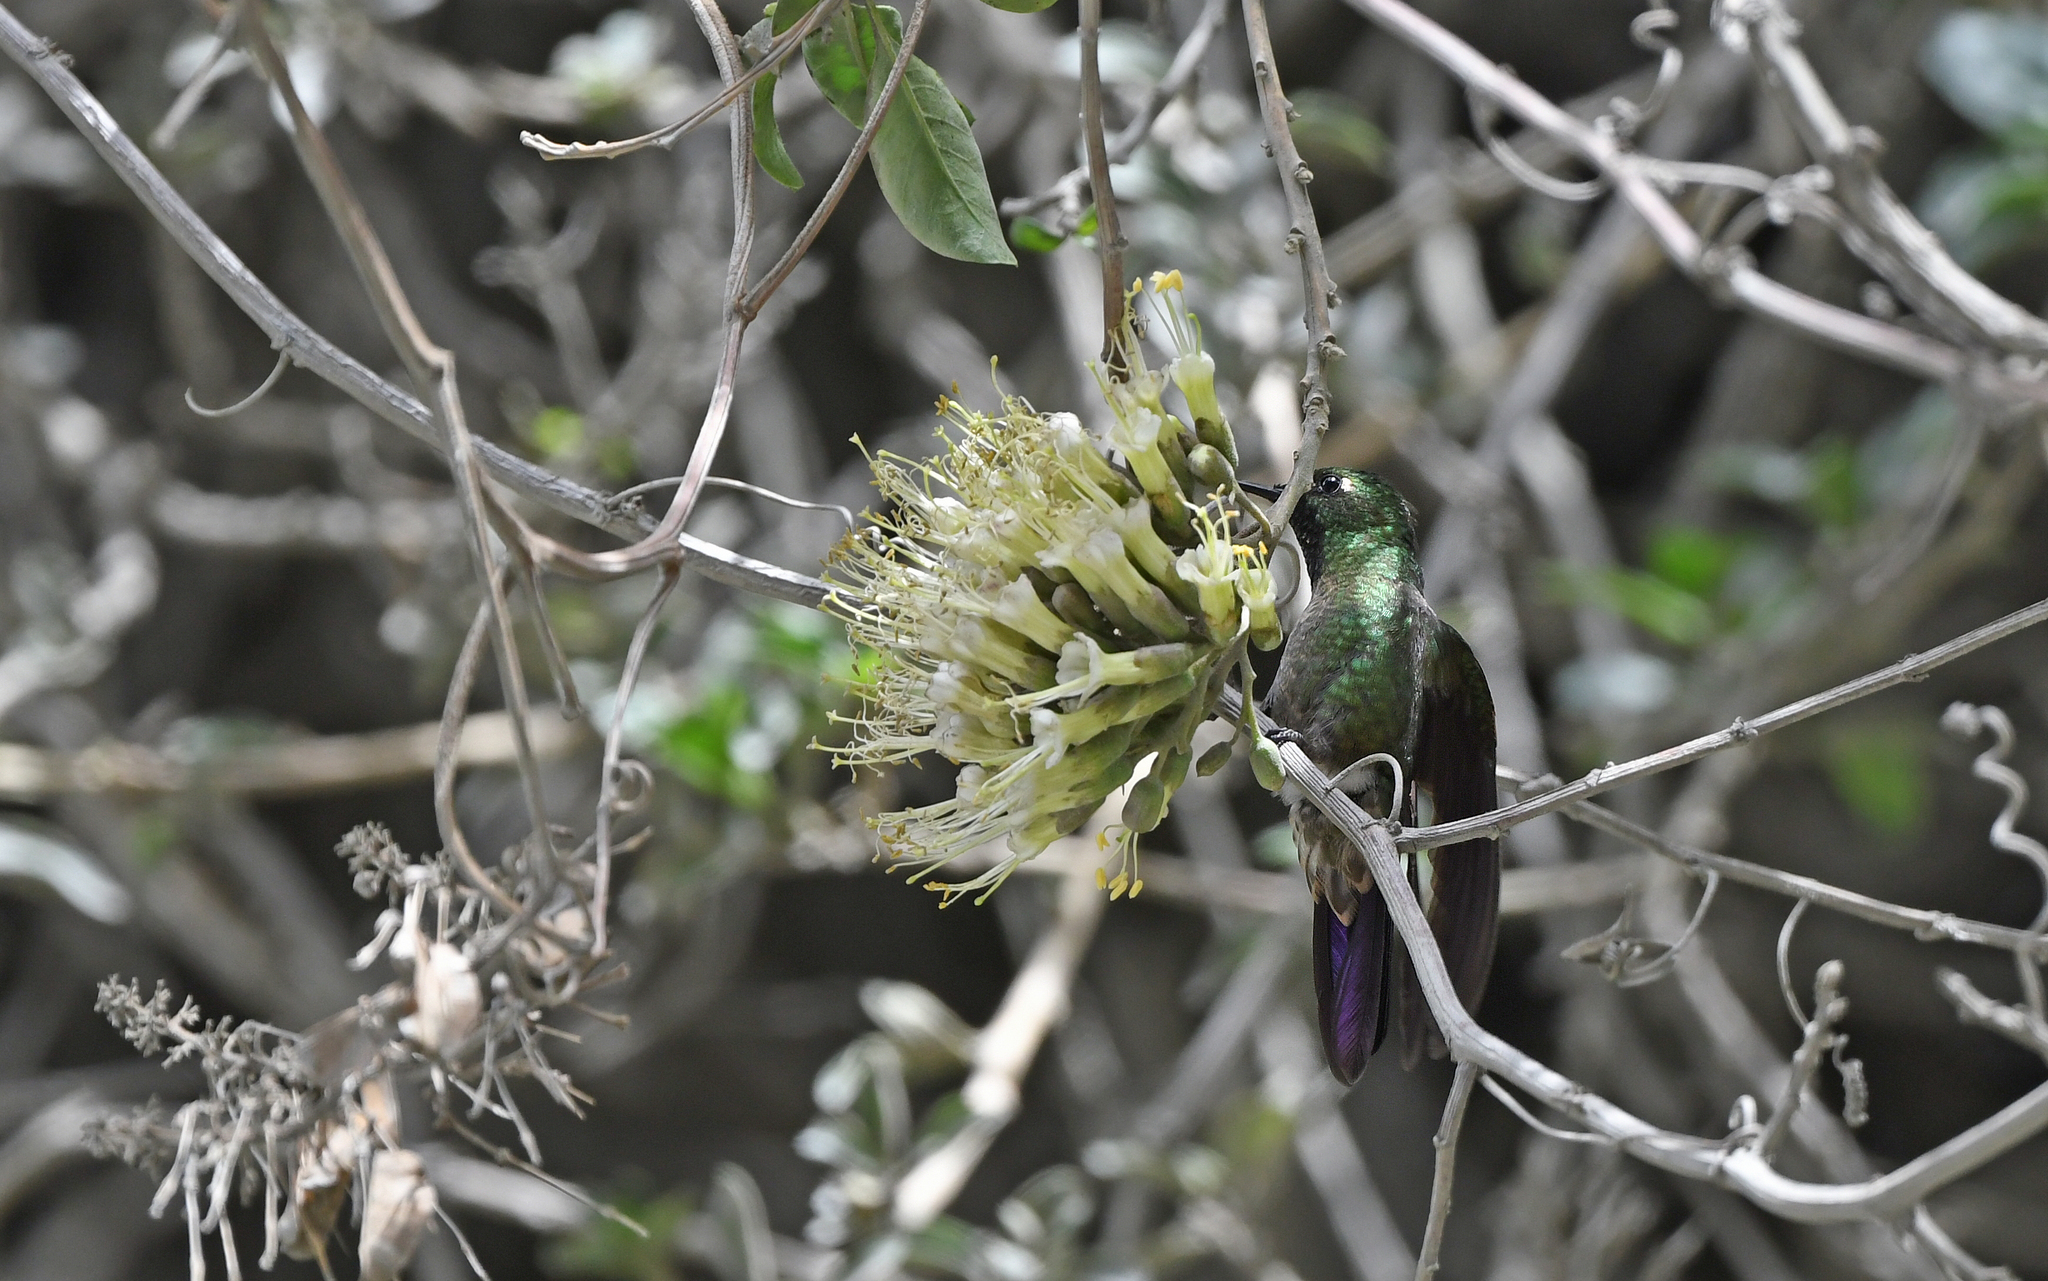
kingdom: Animalia
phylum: Chordata
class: Aves
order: Apodiformes
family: Trochilidae
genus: Metallura
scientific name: Metallura tyrianthina
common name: Tyrian metaltail
